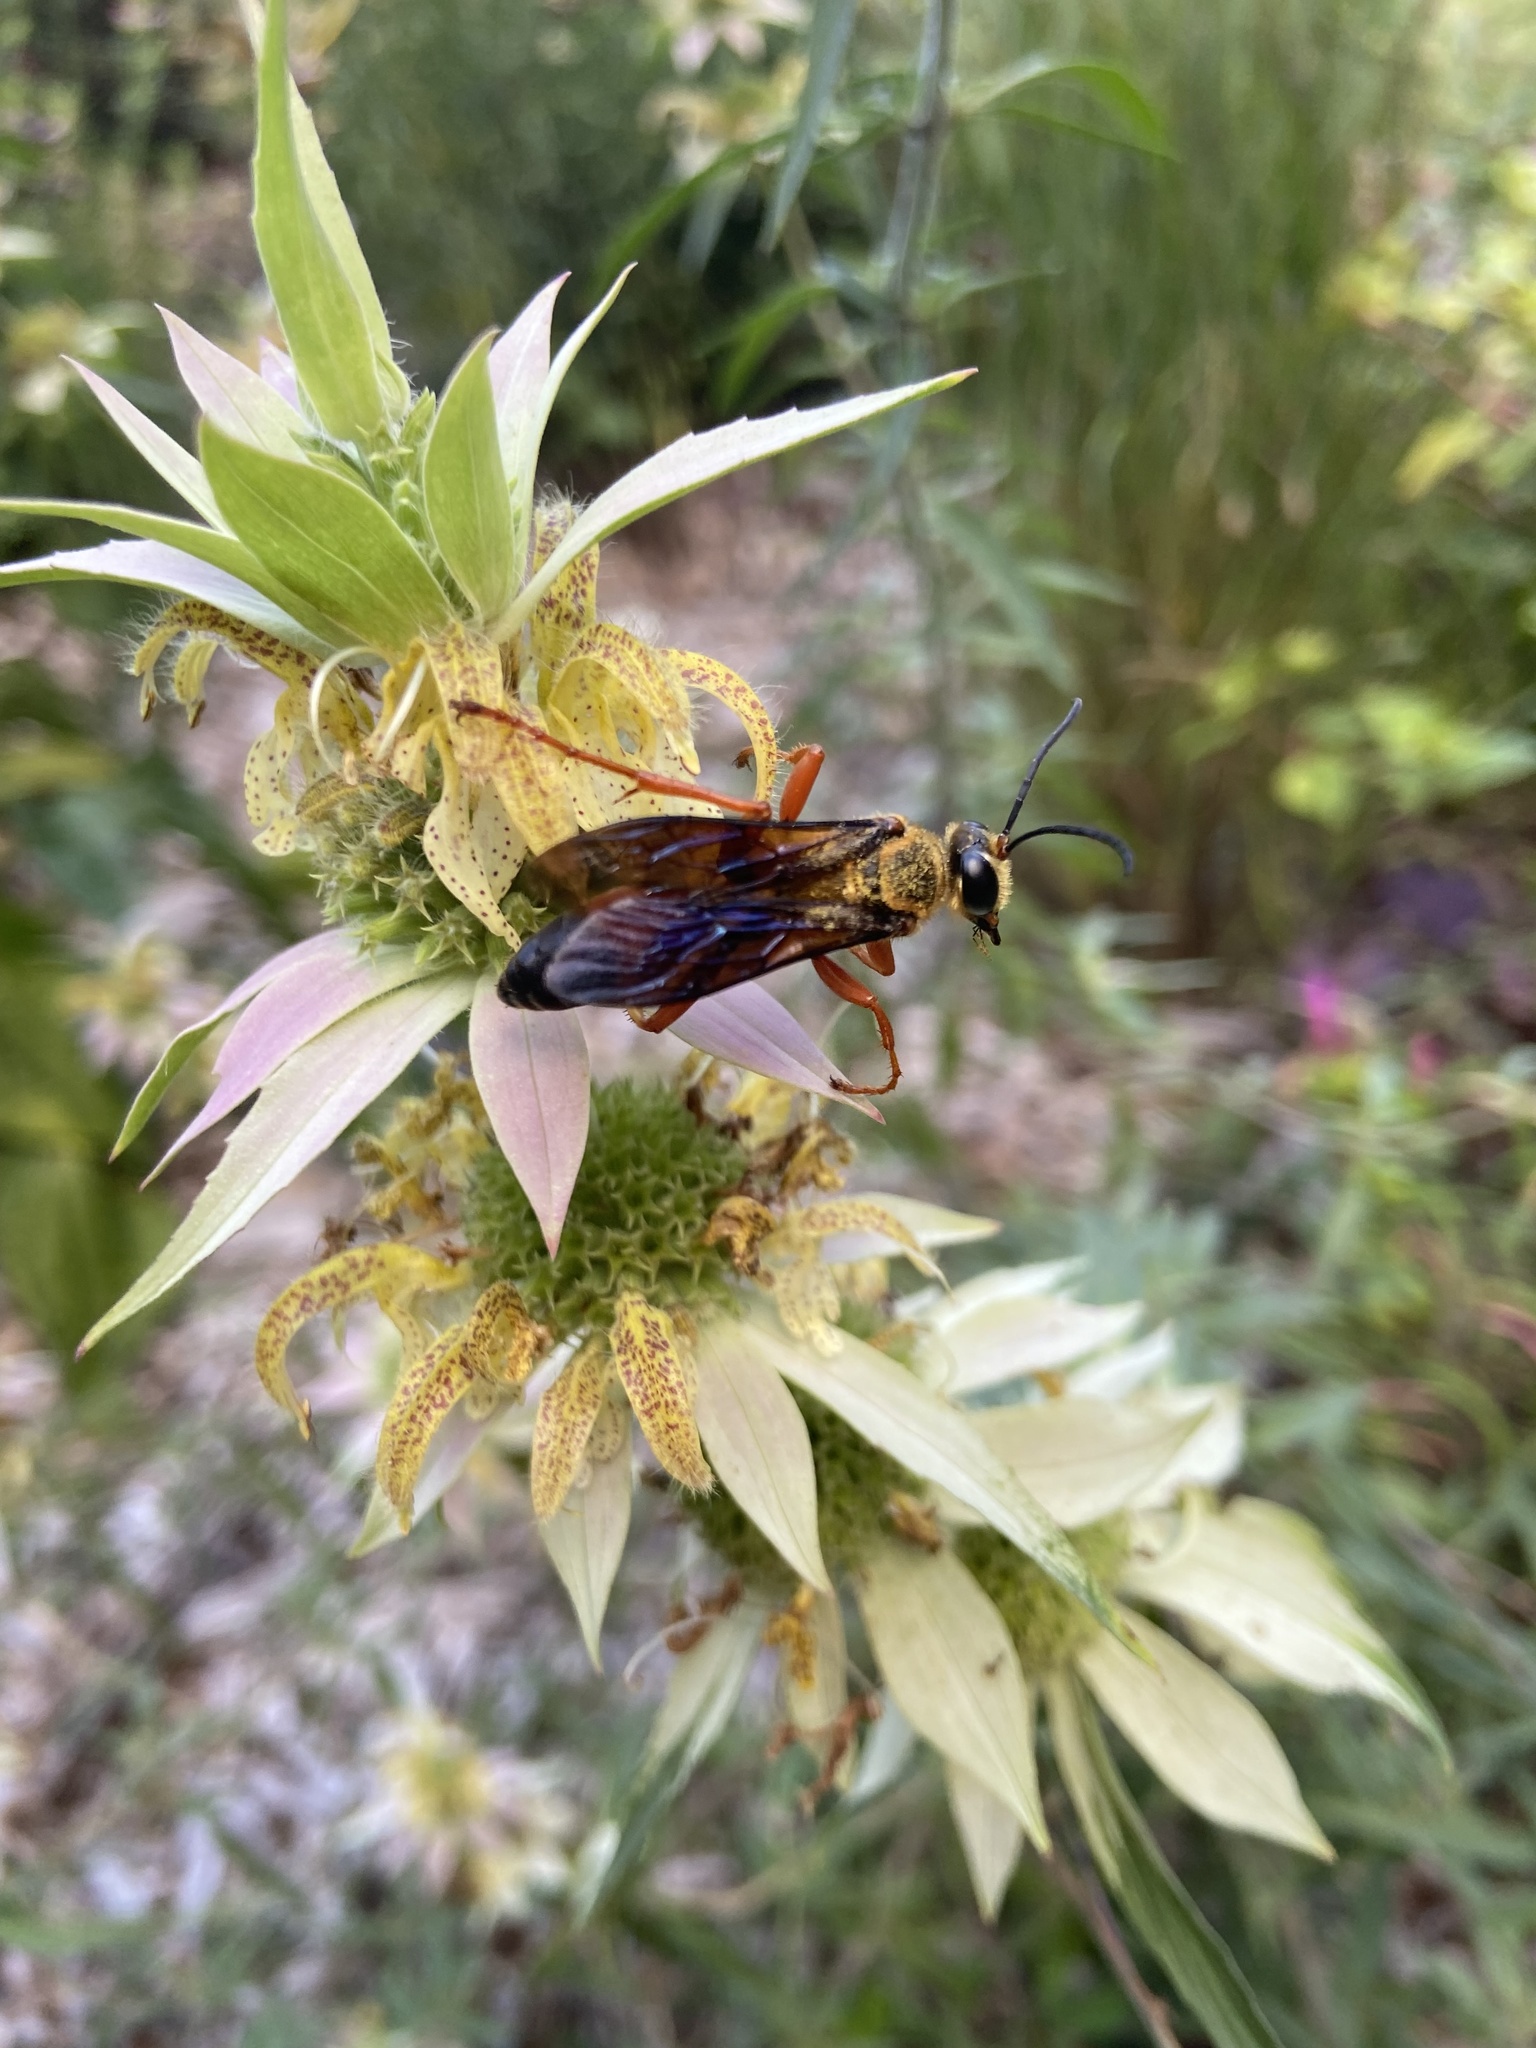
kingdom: Animalia
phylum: Arthropoda
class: Insecta
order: Hymenoptera
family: Sphecidae
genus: Sphex
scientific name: Sphex ichneumoneus
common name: Great golden digger wasp
